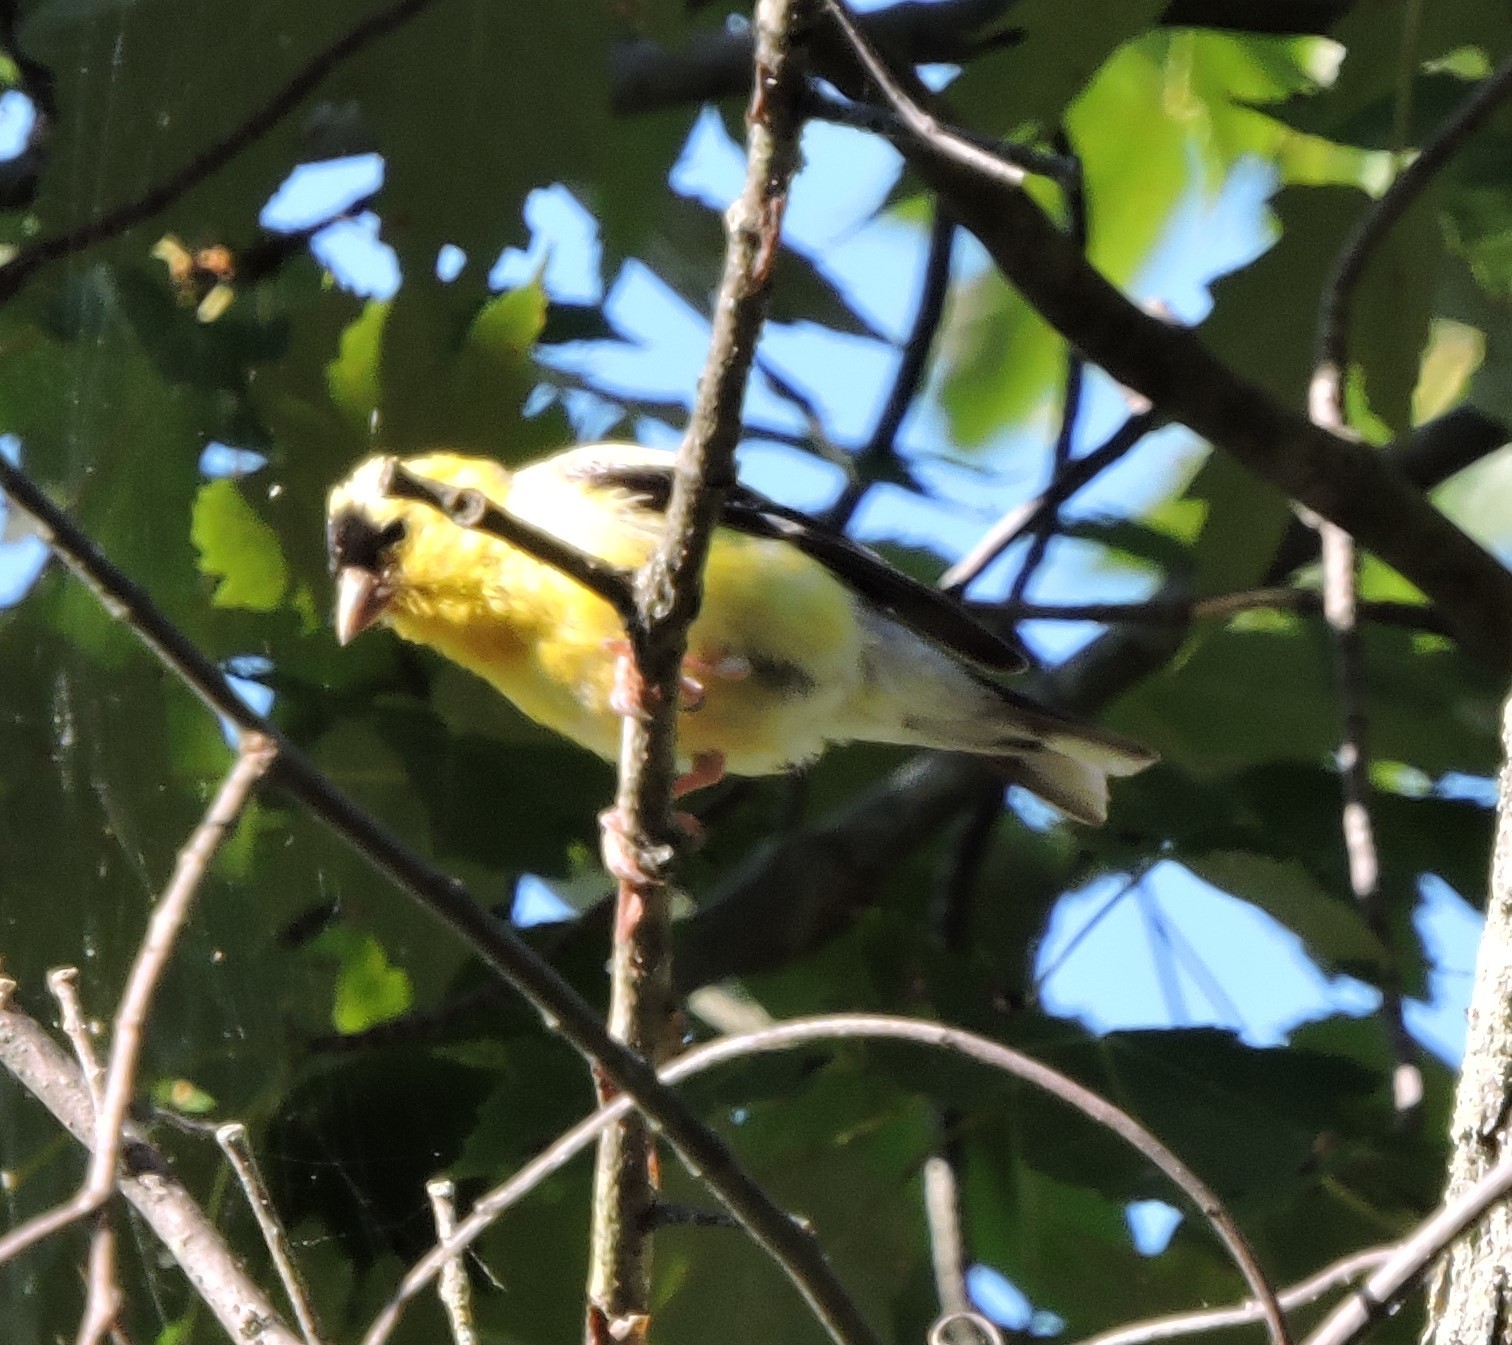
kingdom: Animalia
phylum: Chordata
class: Aves
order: Passeriformes
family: Fringillidae
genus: Spinus
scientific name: Spinus tristis
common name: American goldfinch
